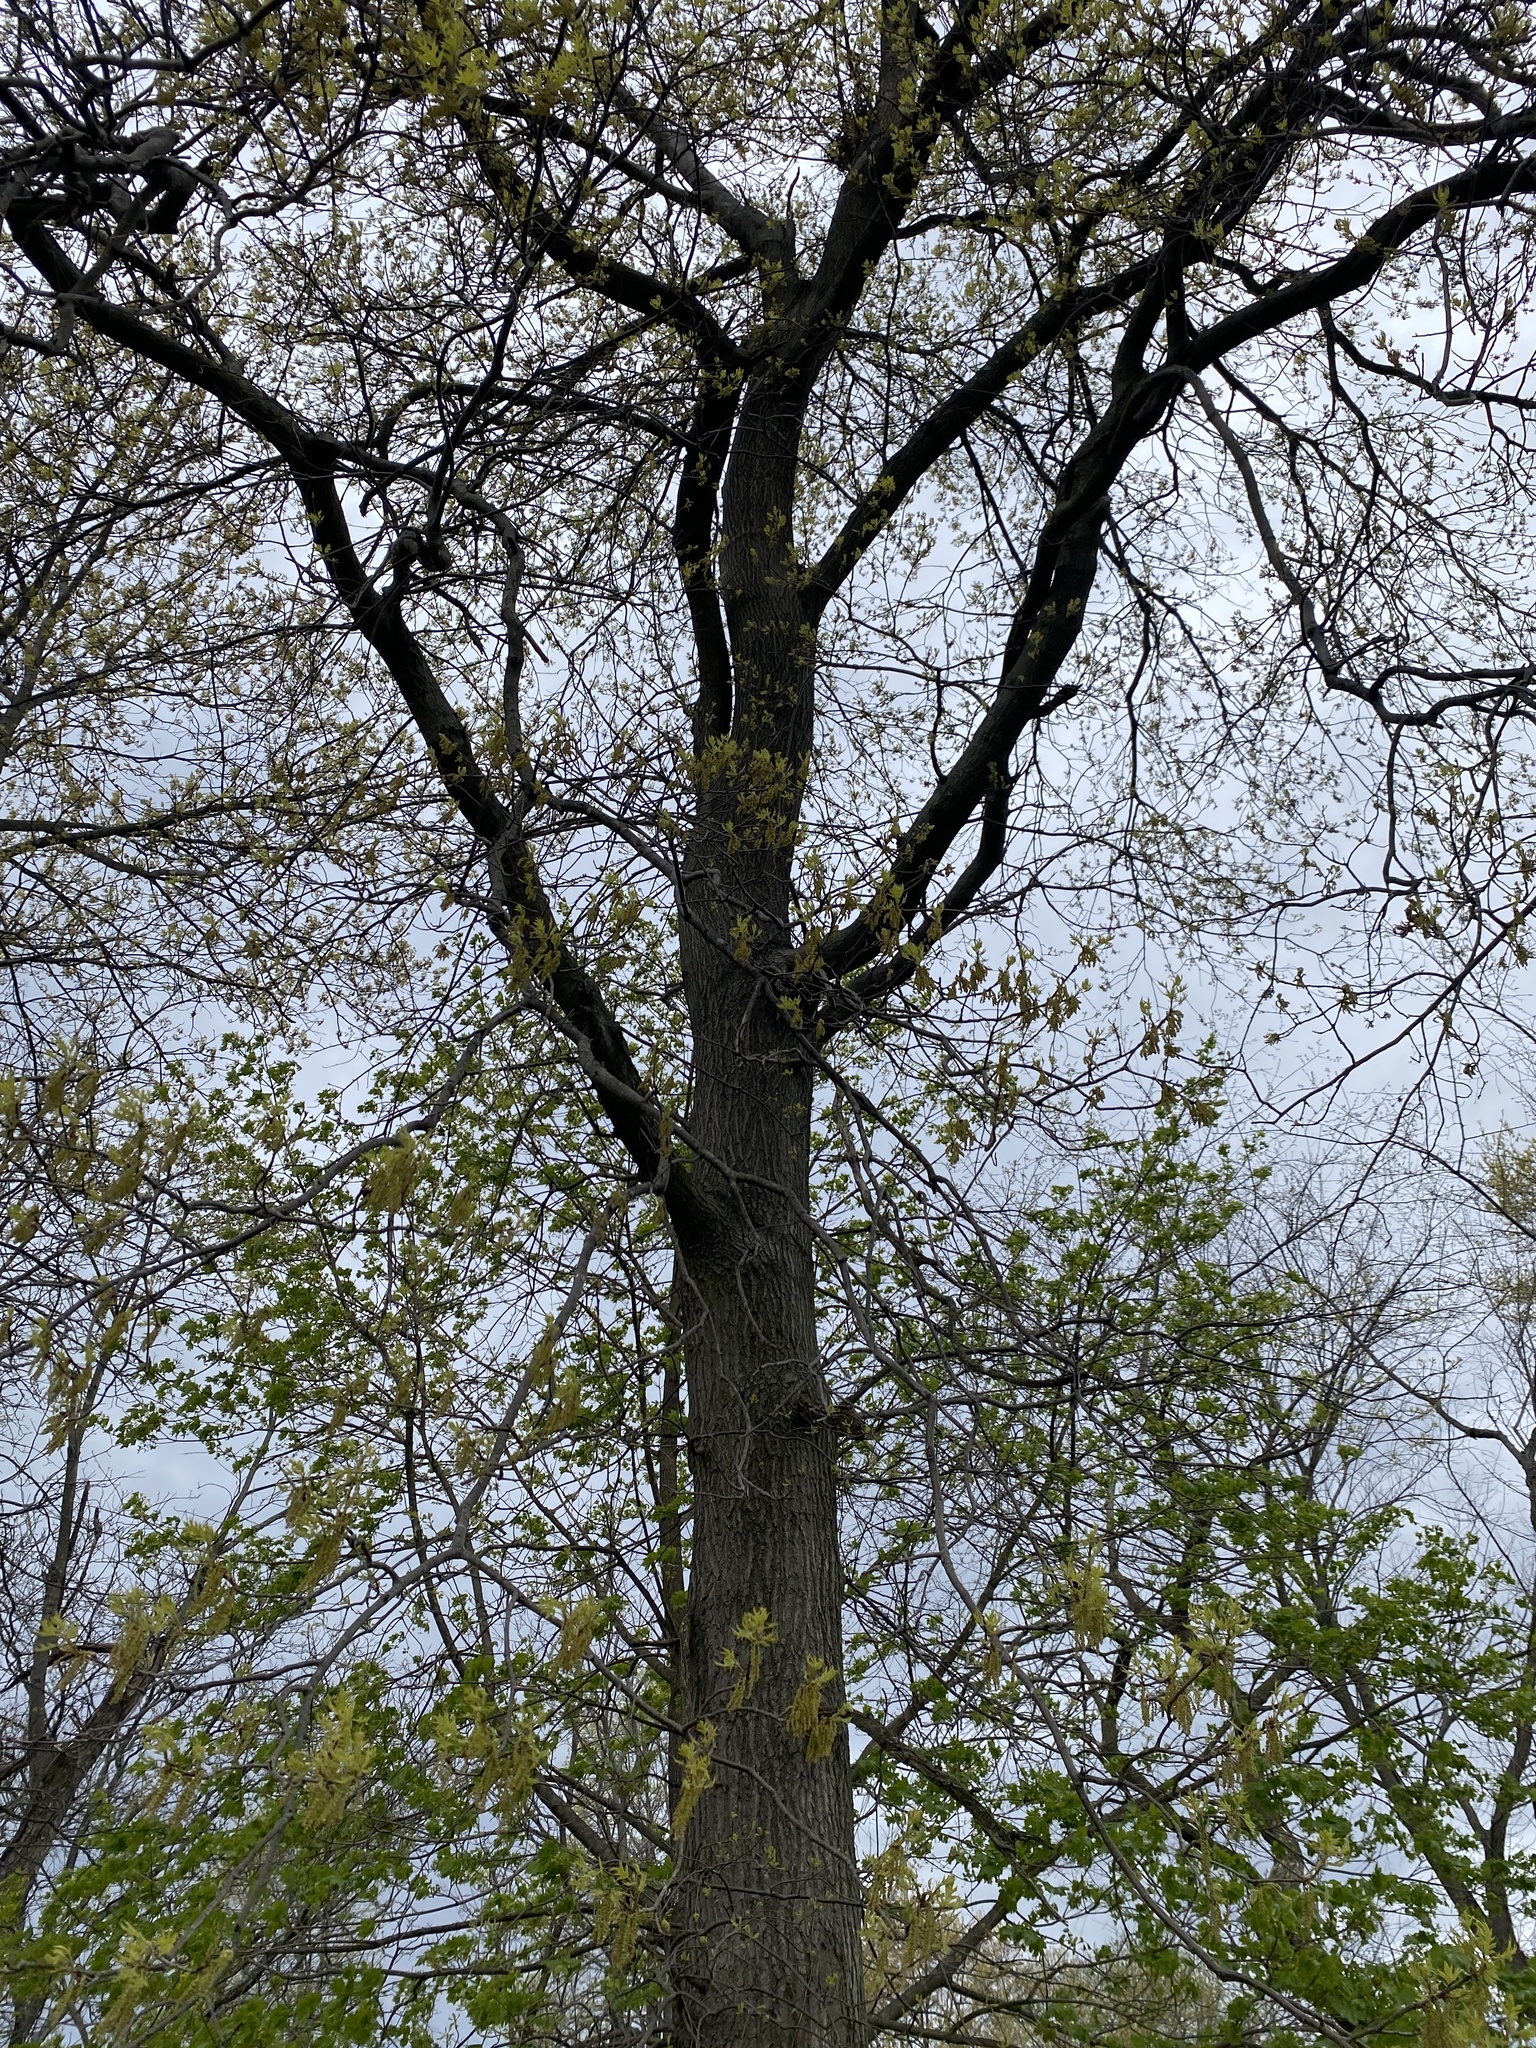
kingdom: Plantae
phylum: Tracheophyta
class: Magnoliopsida
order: Fagales
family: Fagaceae
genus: Quercus
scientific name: Quercus palustris
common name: Pin oak
